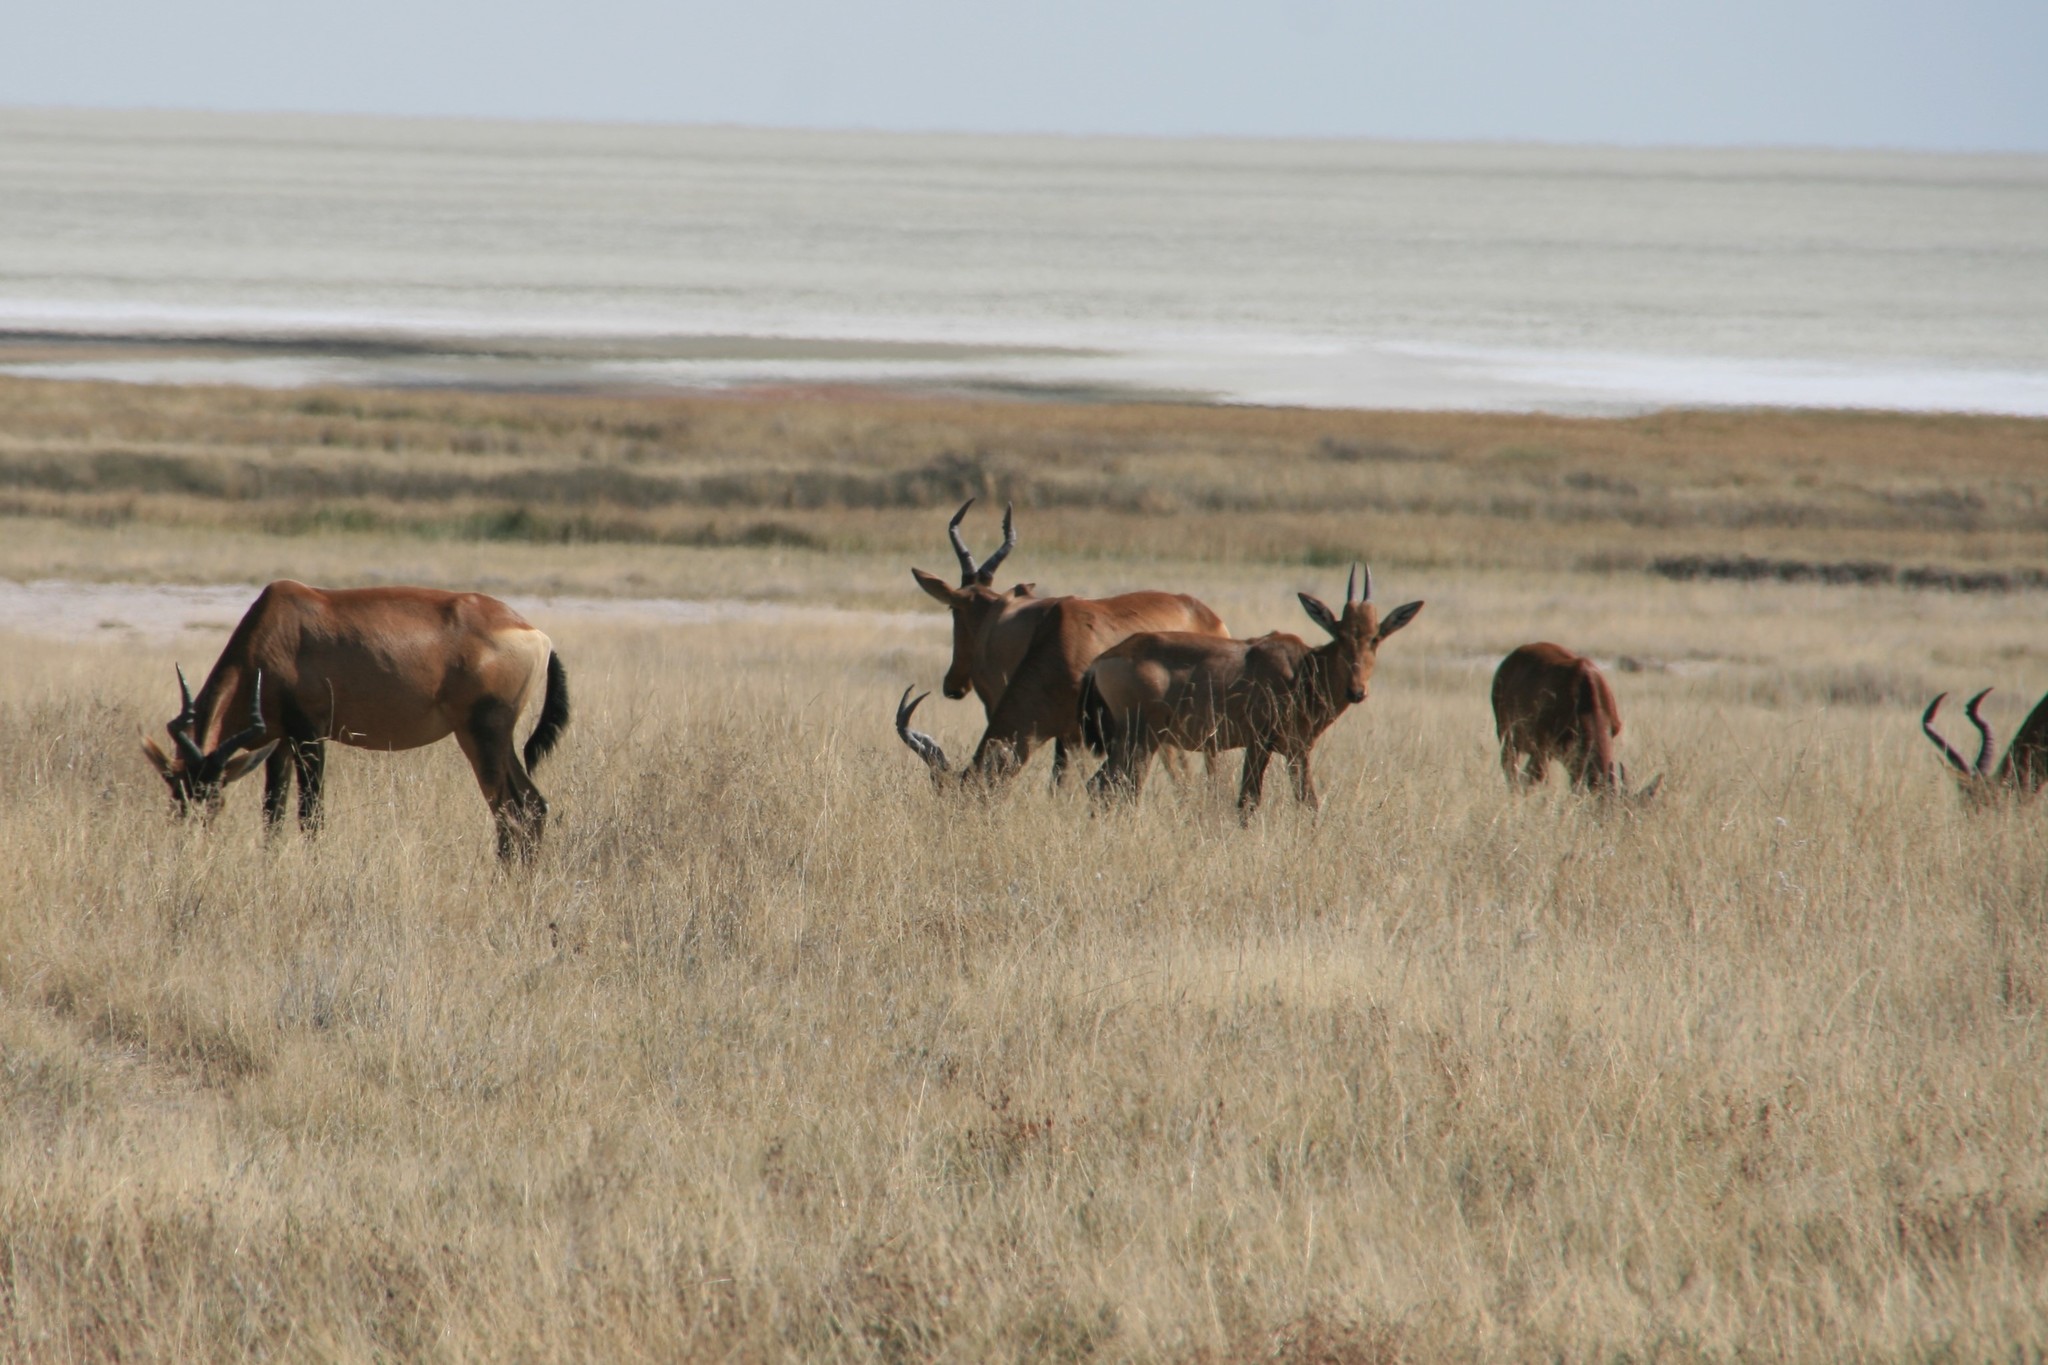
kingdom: Animalia
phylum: Chordata
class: Mammalia
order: Artiodactyla
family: Bovidae
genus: Alcelaphus
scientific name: Alcelaphus caama
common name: Red hartebeest
